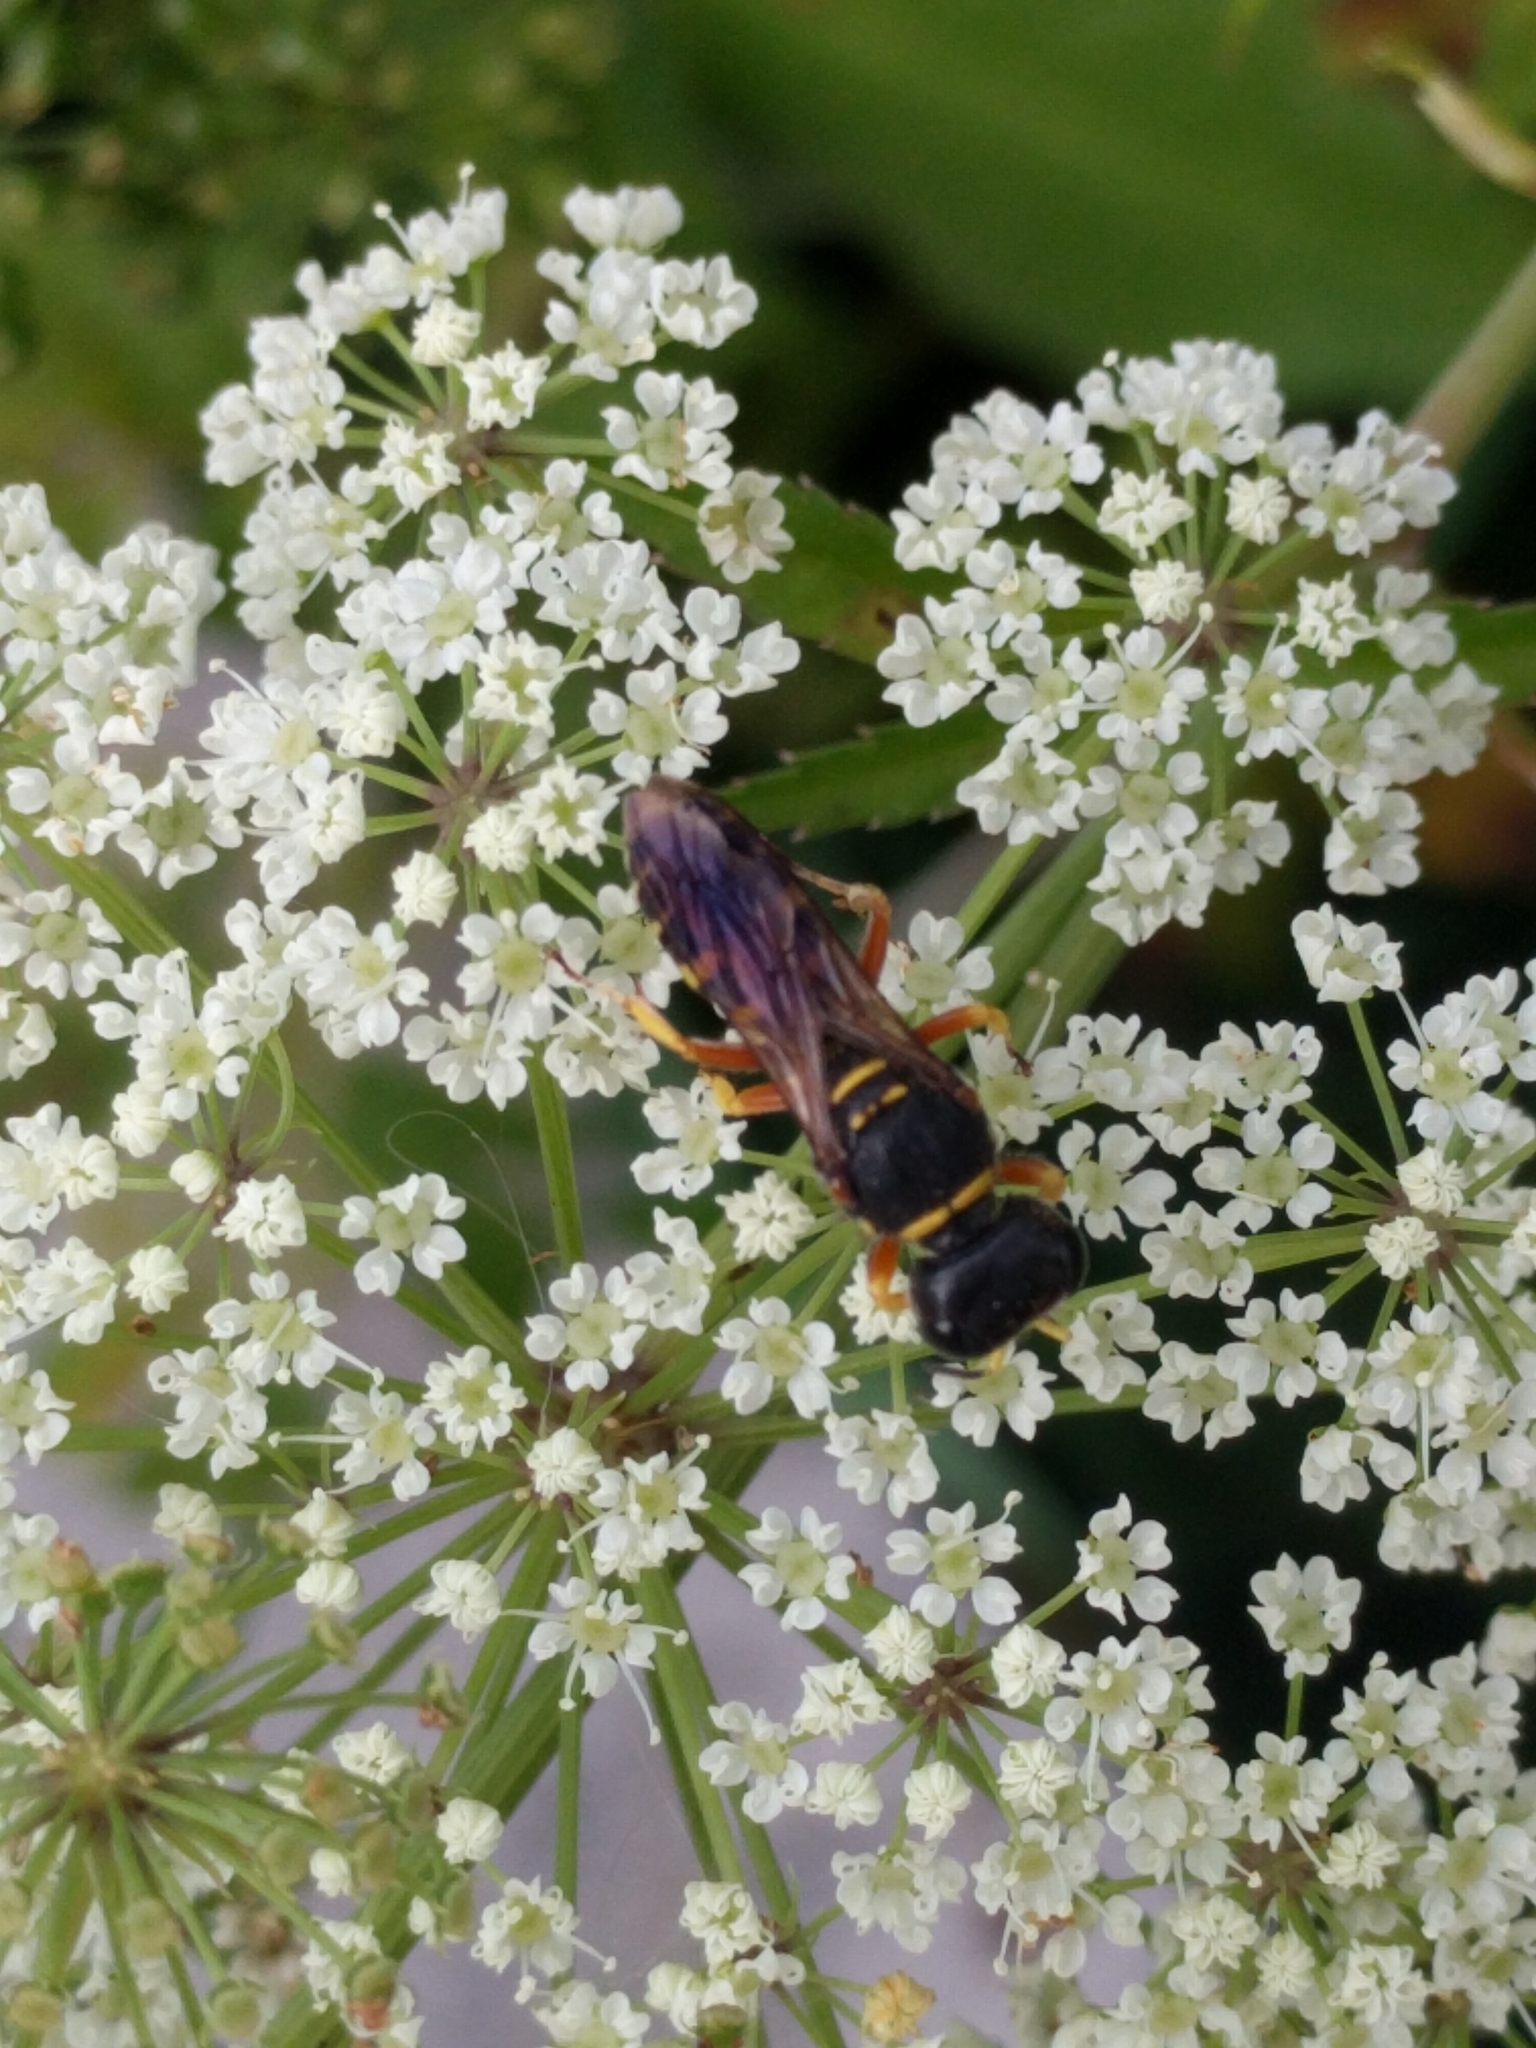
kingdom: Animalia
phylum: Arthropoda
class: Insecta
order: Hymenoptera
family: Crabronidae
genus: Ectemnius
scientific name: Ectemnius decemmaculatus
